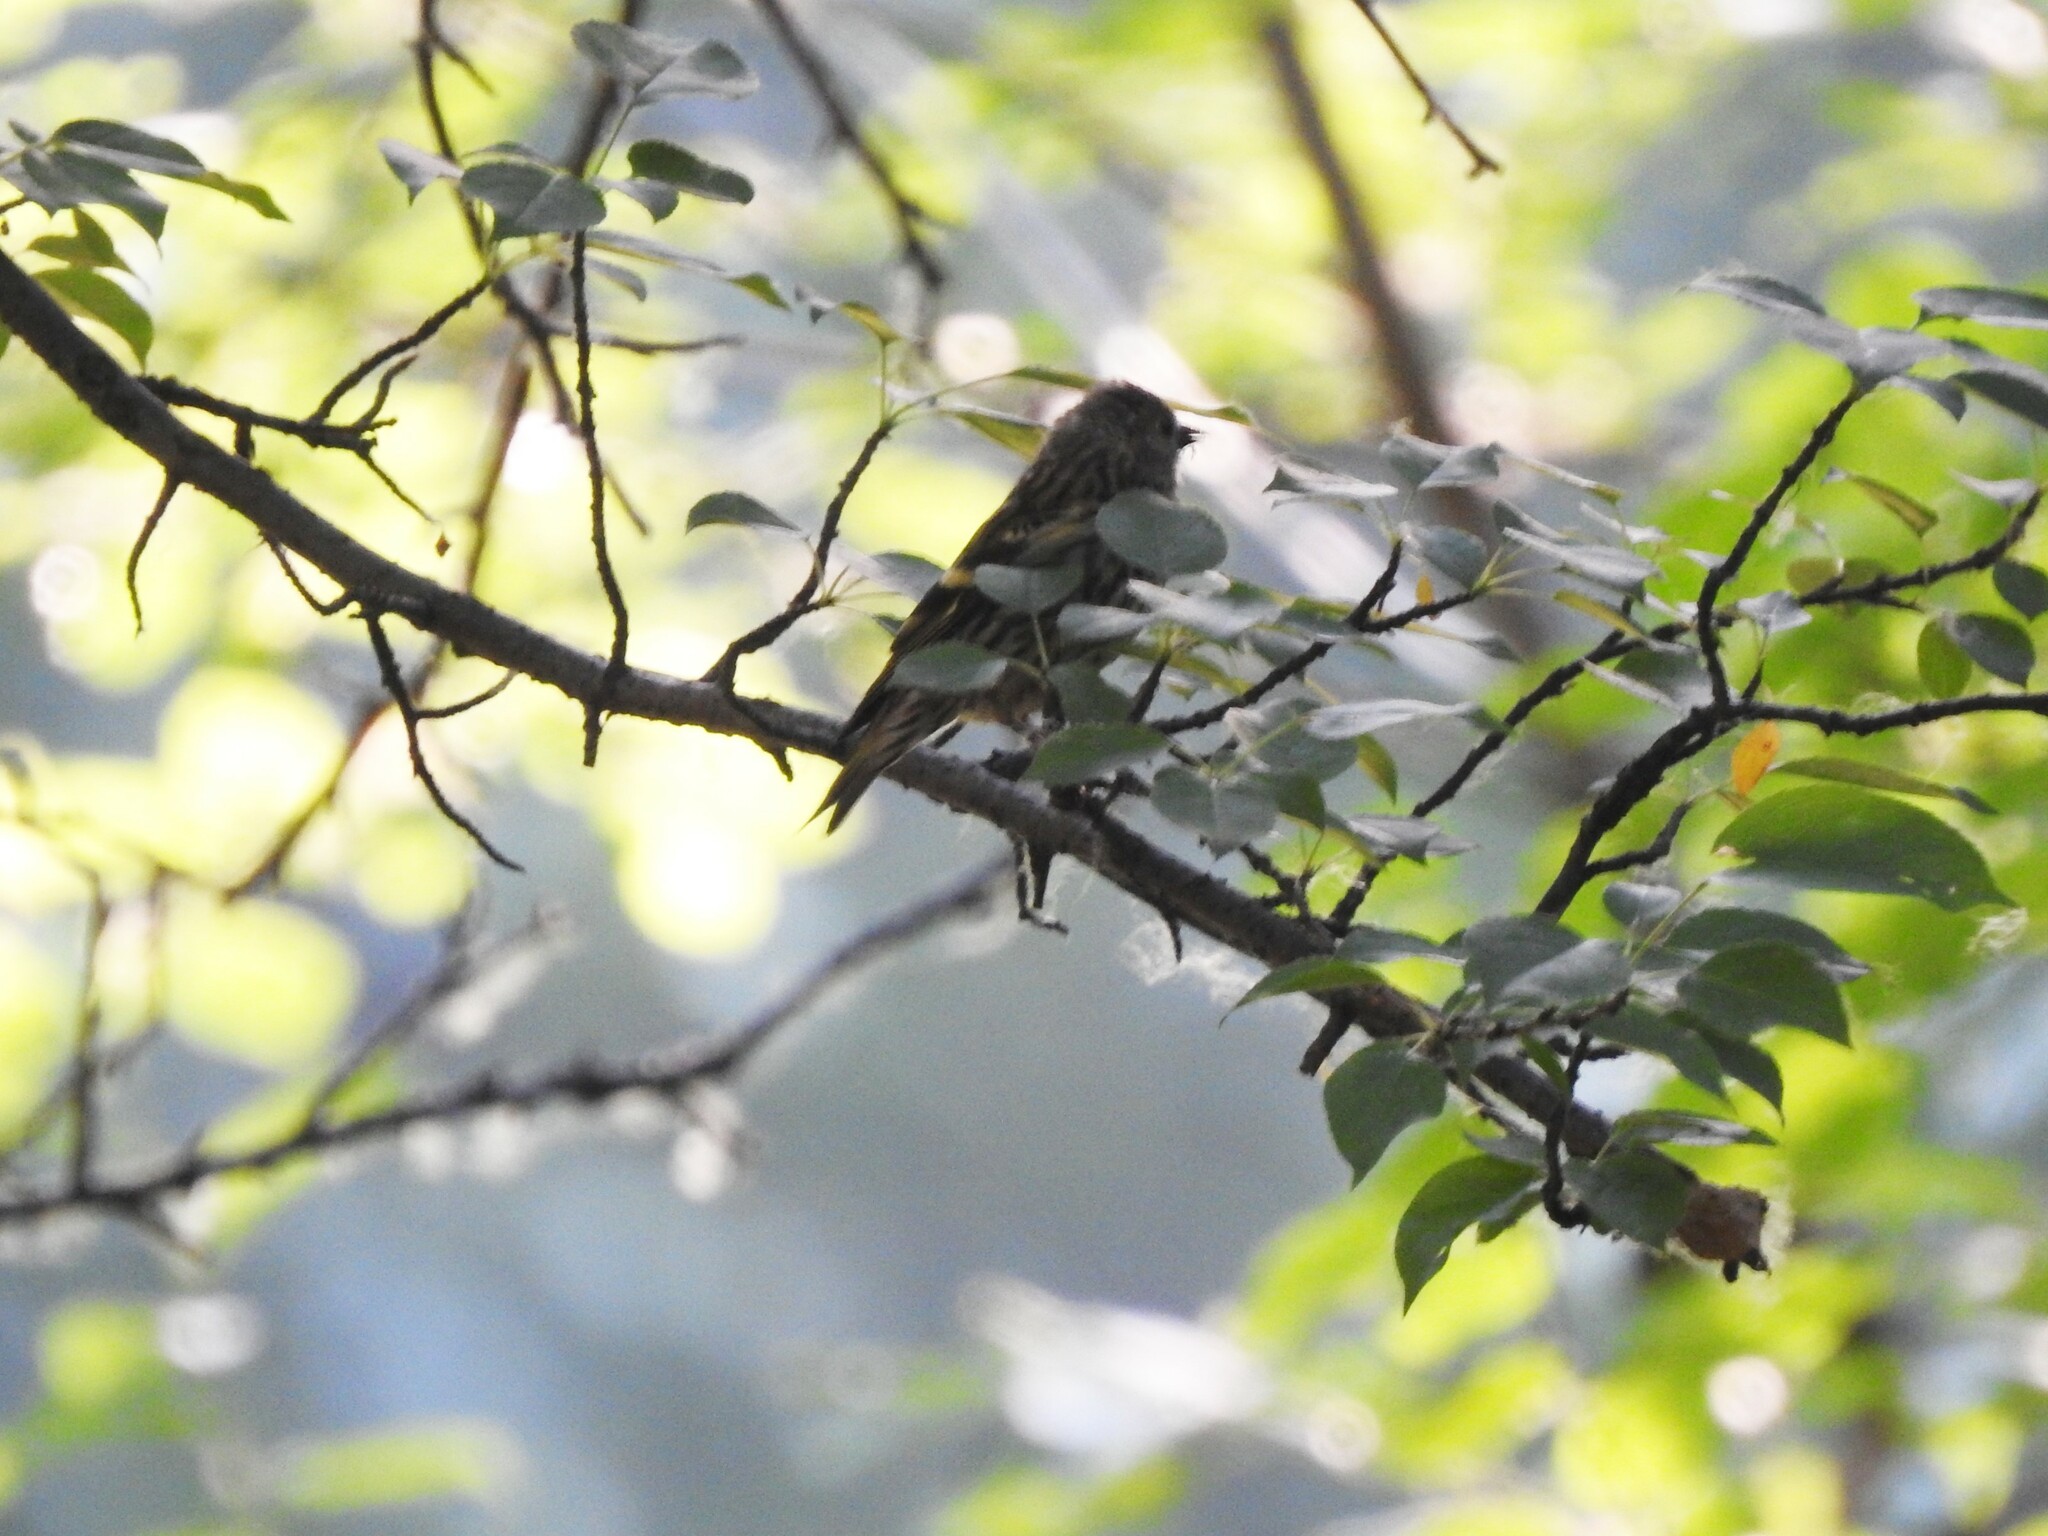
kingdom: Animalia
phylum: Chordata
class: Aves
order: Passeriformes
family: Fringillidae
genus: Spinus
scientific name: Spinus spinus
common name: Eurasian siskin
